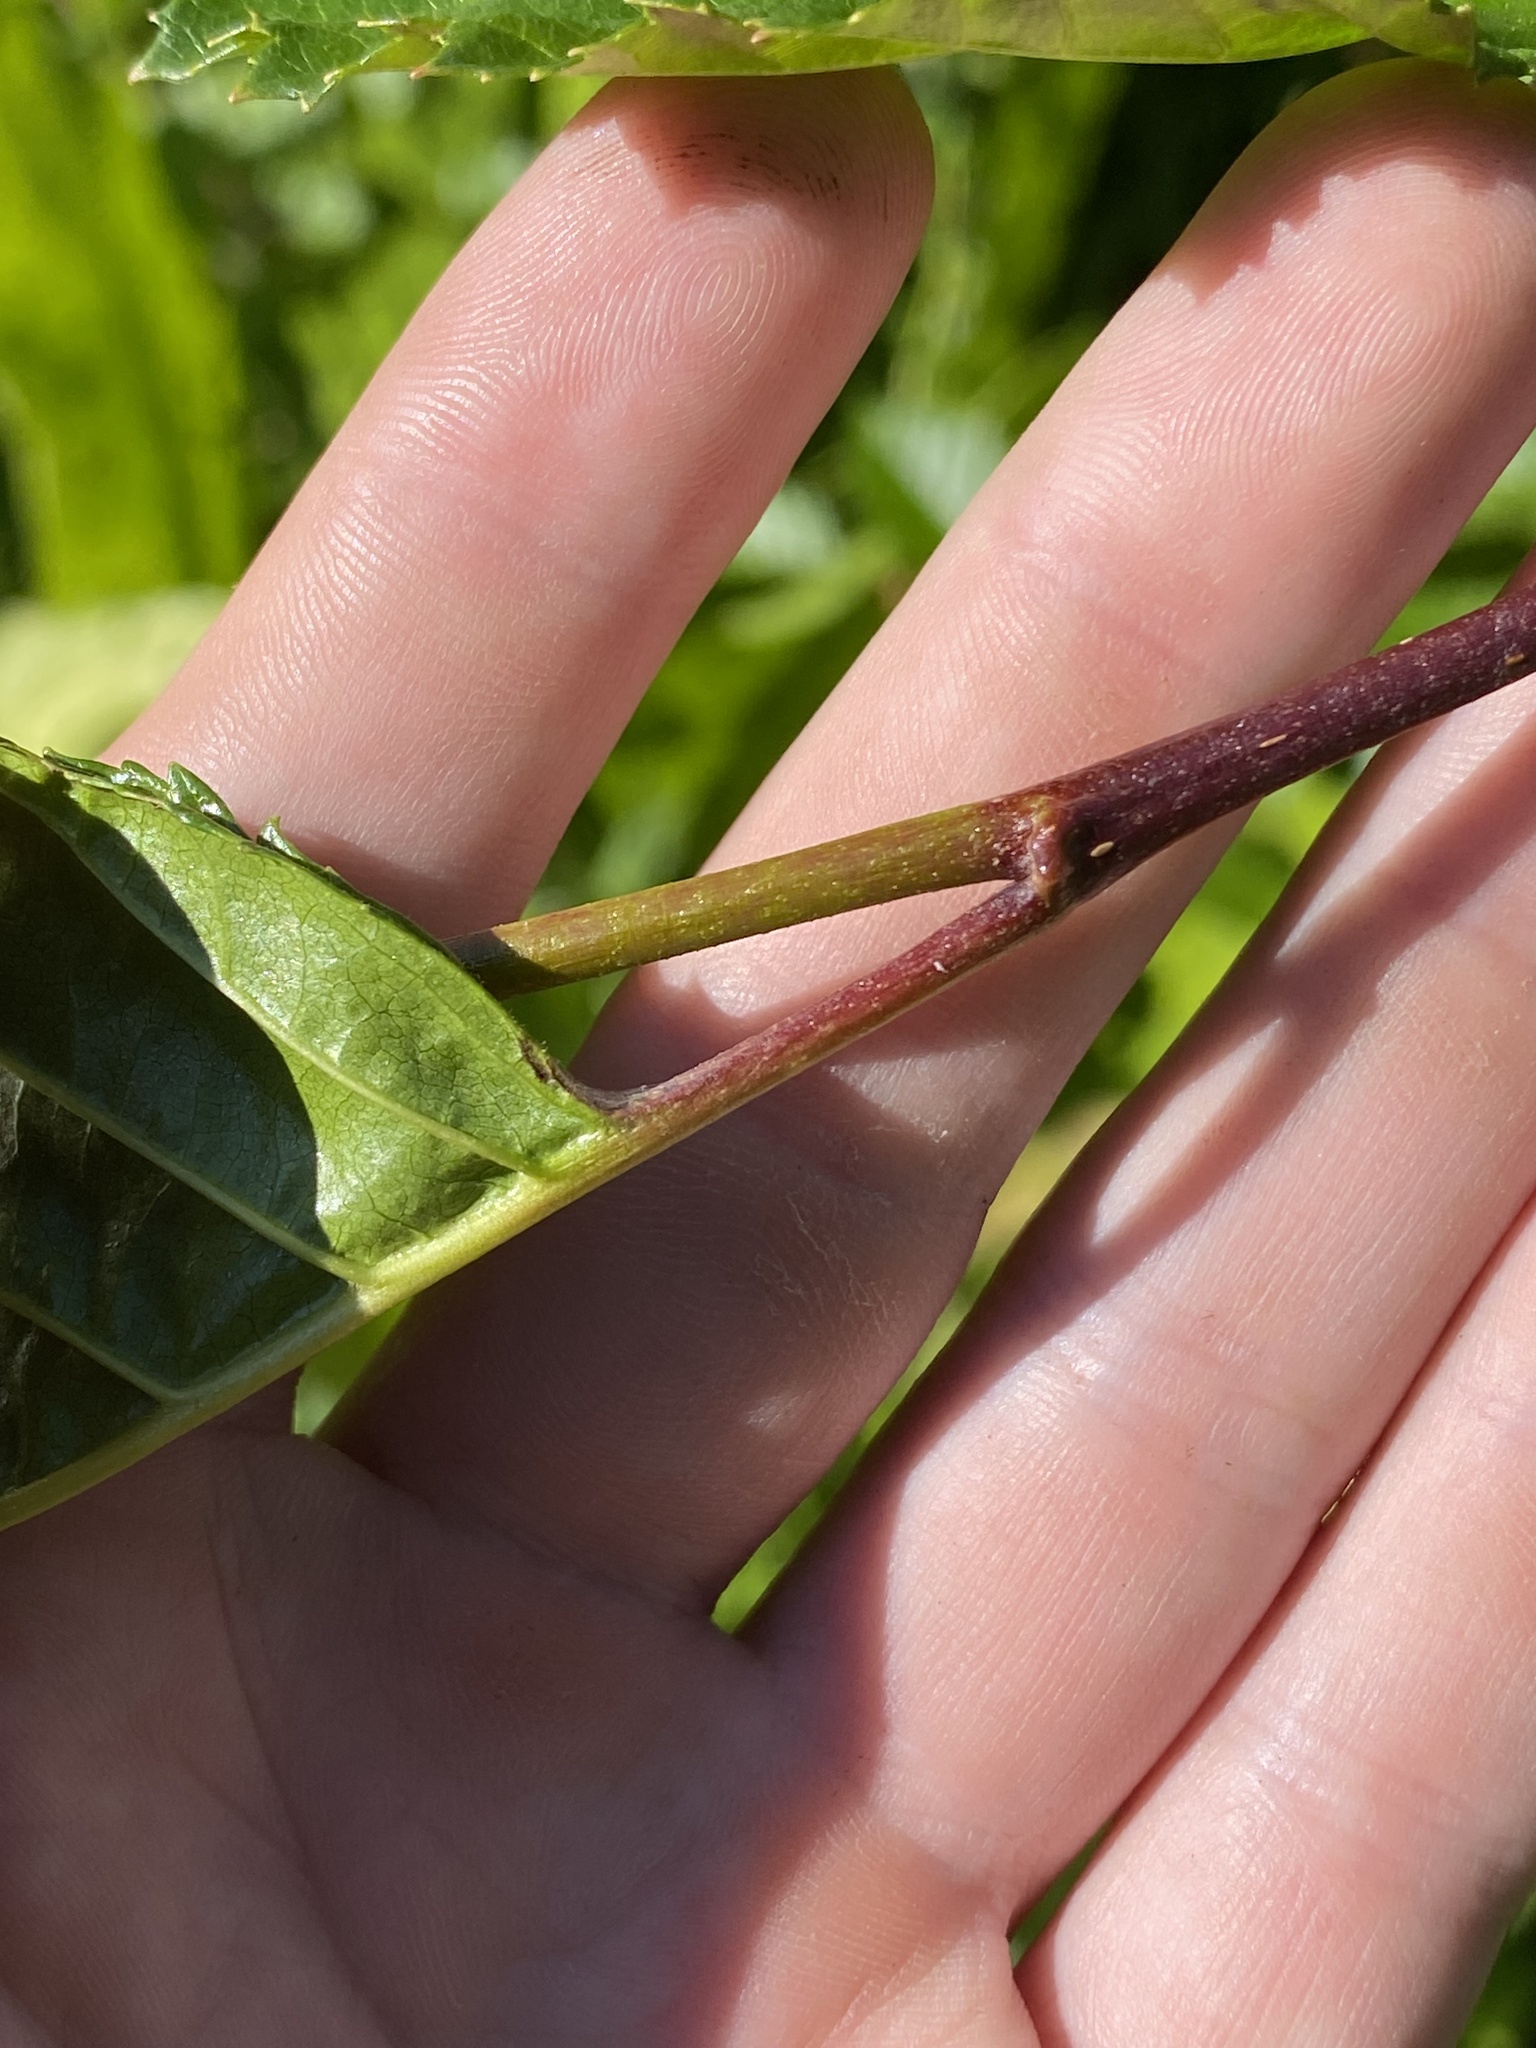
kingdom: Plantae
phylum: Tracheophyta
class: Magnoliopsida
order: Fagales
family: Betulaceae
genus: Alnus
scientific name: Alnus alnobetula
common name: Green alder
